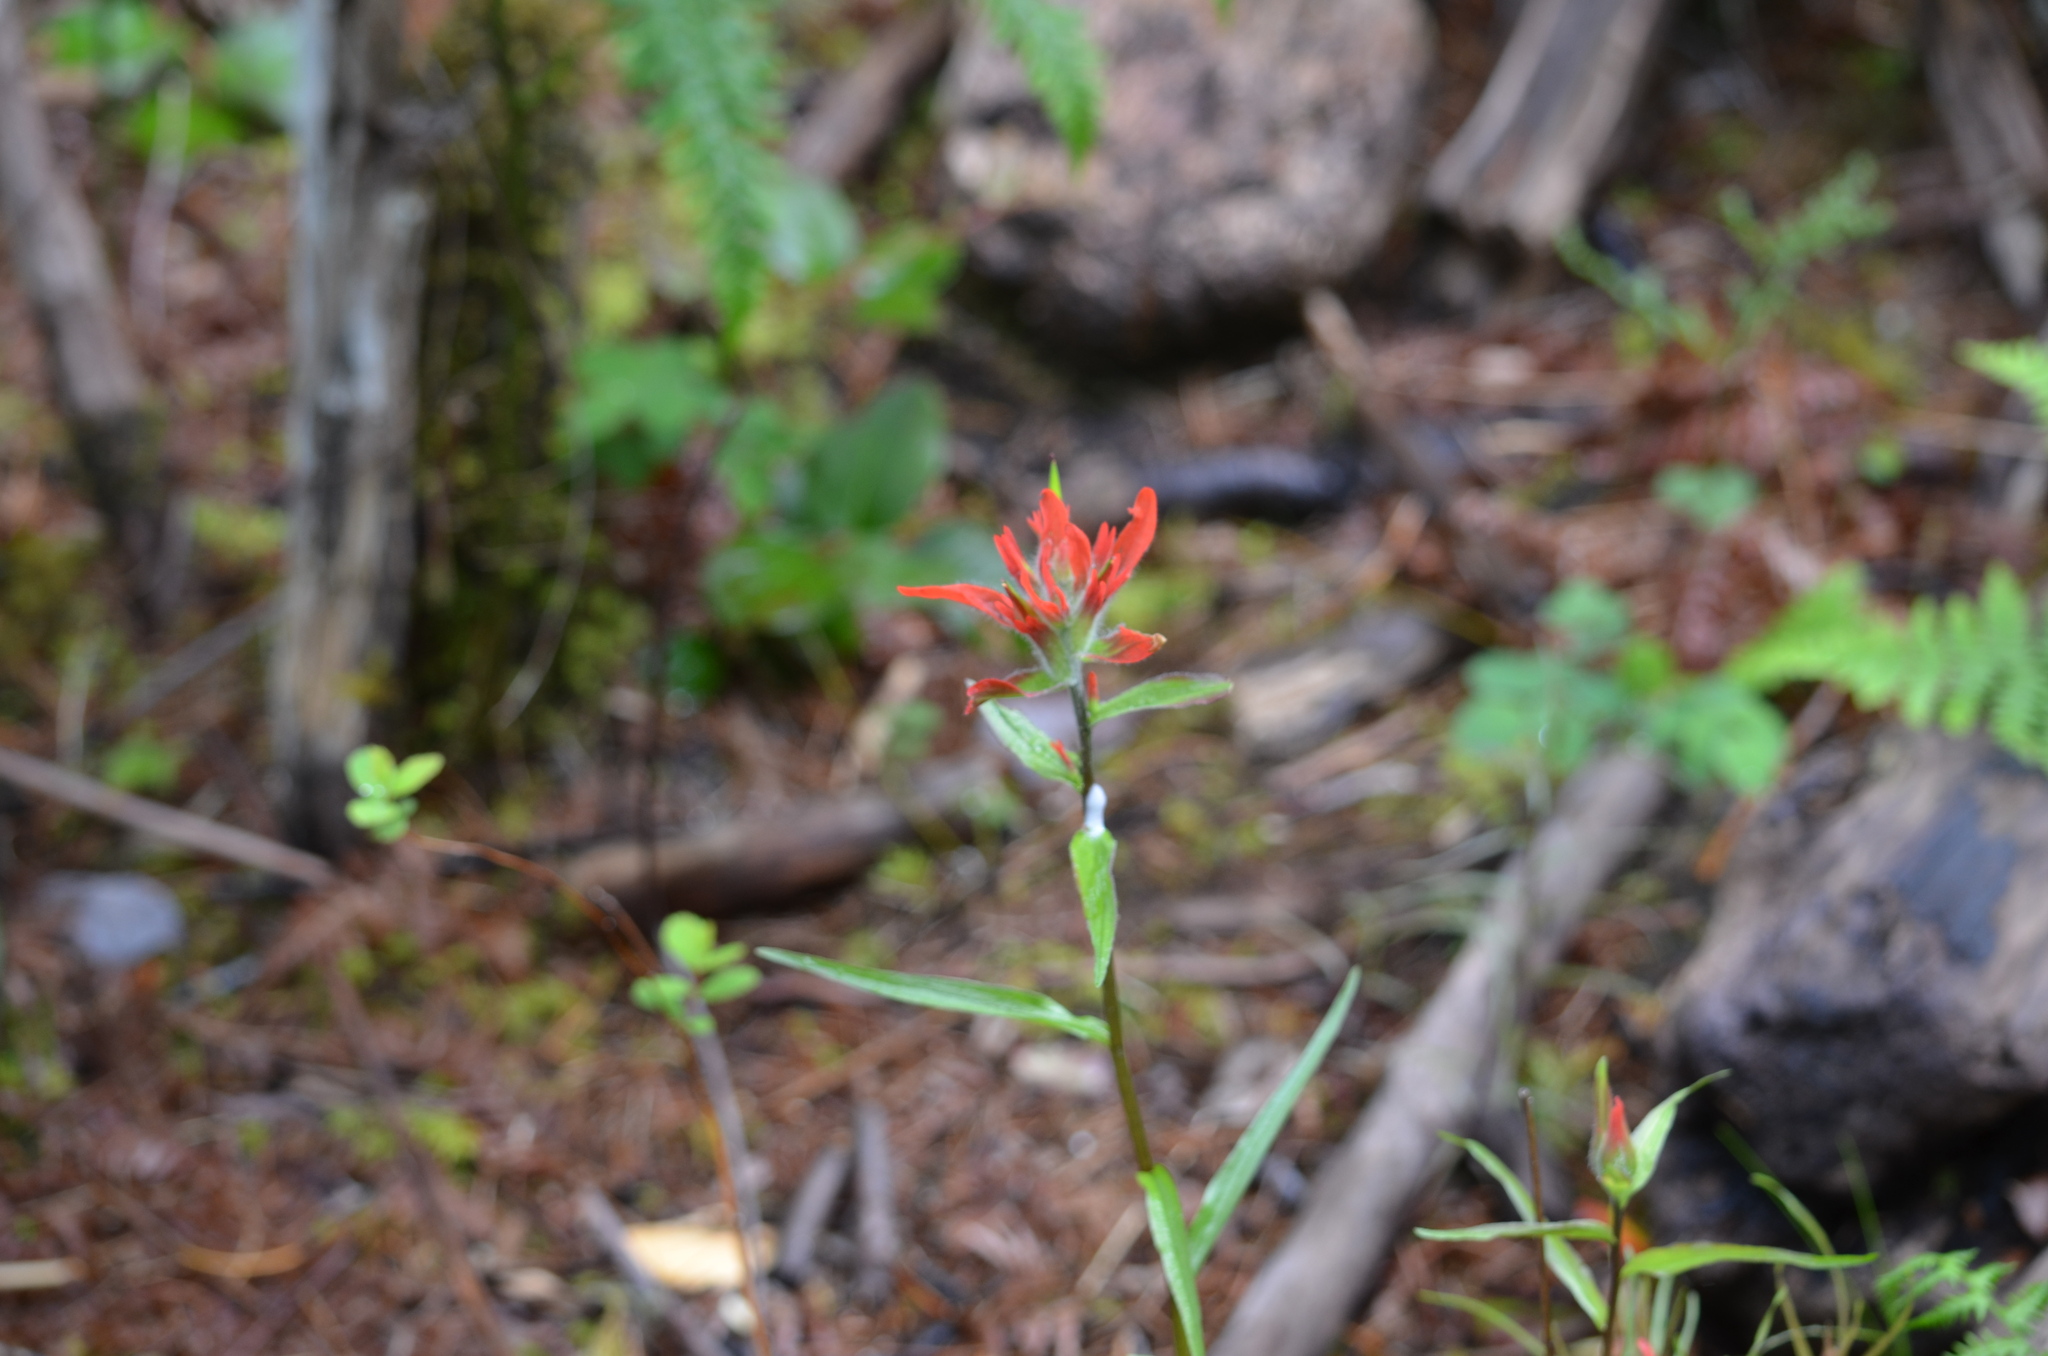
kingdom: Plantae
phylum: Tracheophyta
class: Magnoliopsida
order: Lamiales
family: Orobanchaceae
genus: Castilleja
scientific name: Castilleja miniata
